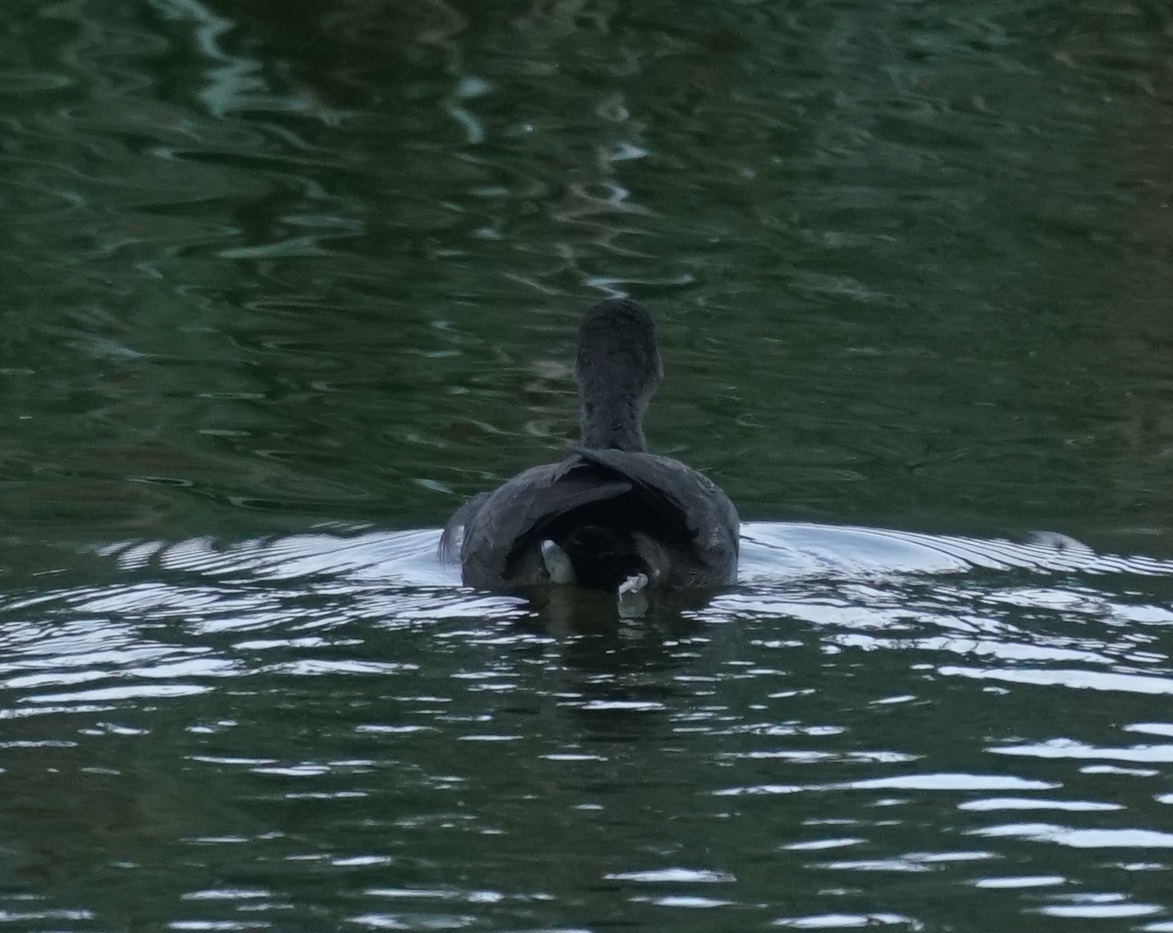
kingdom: Animalia
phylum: Chordata
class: Aves
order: Gruiformes
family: Rallidae
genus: Gallinula
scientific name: Gallinula tenebrosa
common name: Dusky moorhen
